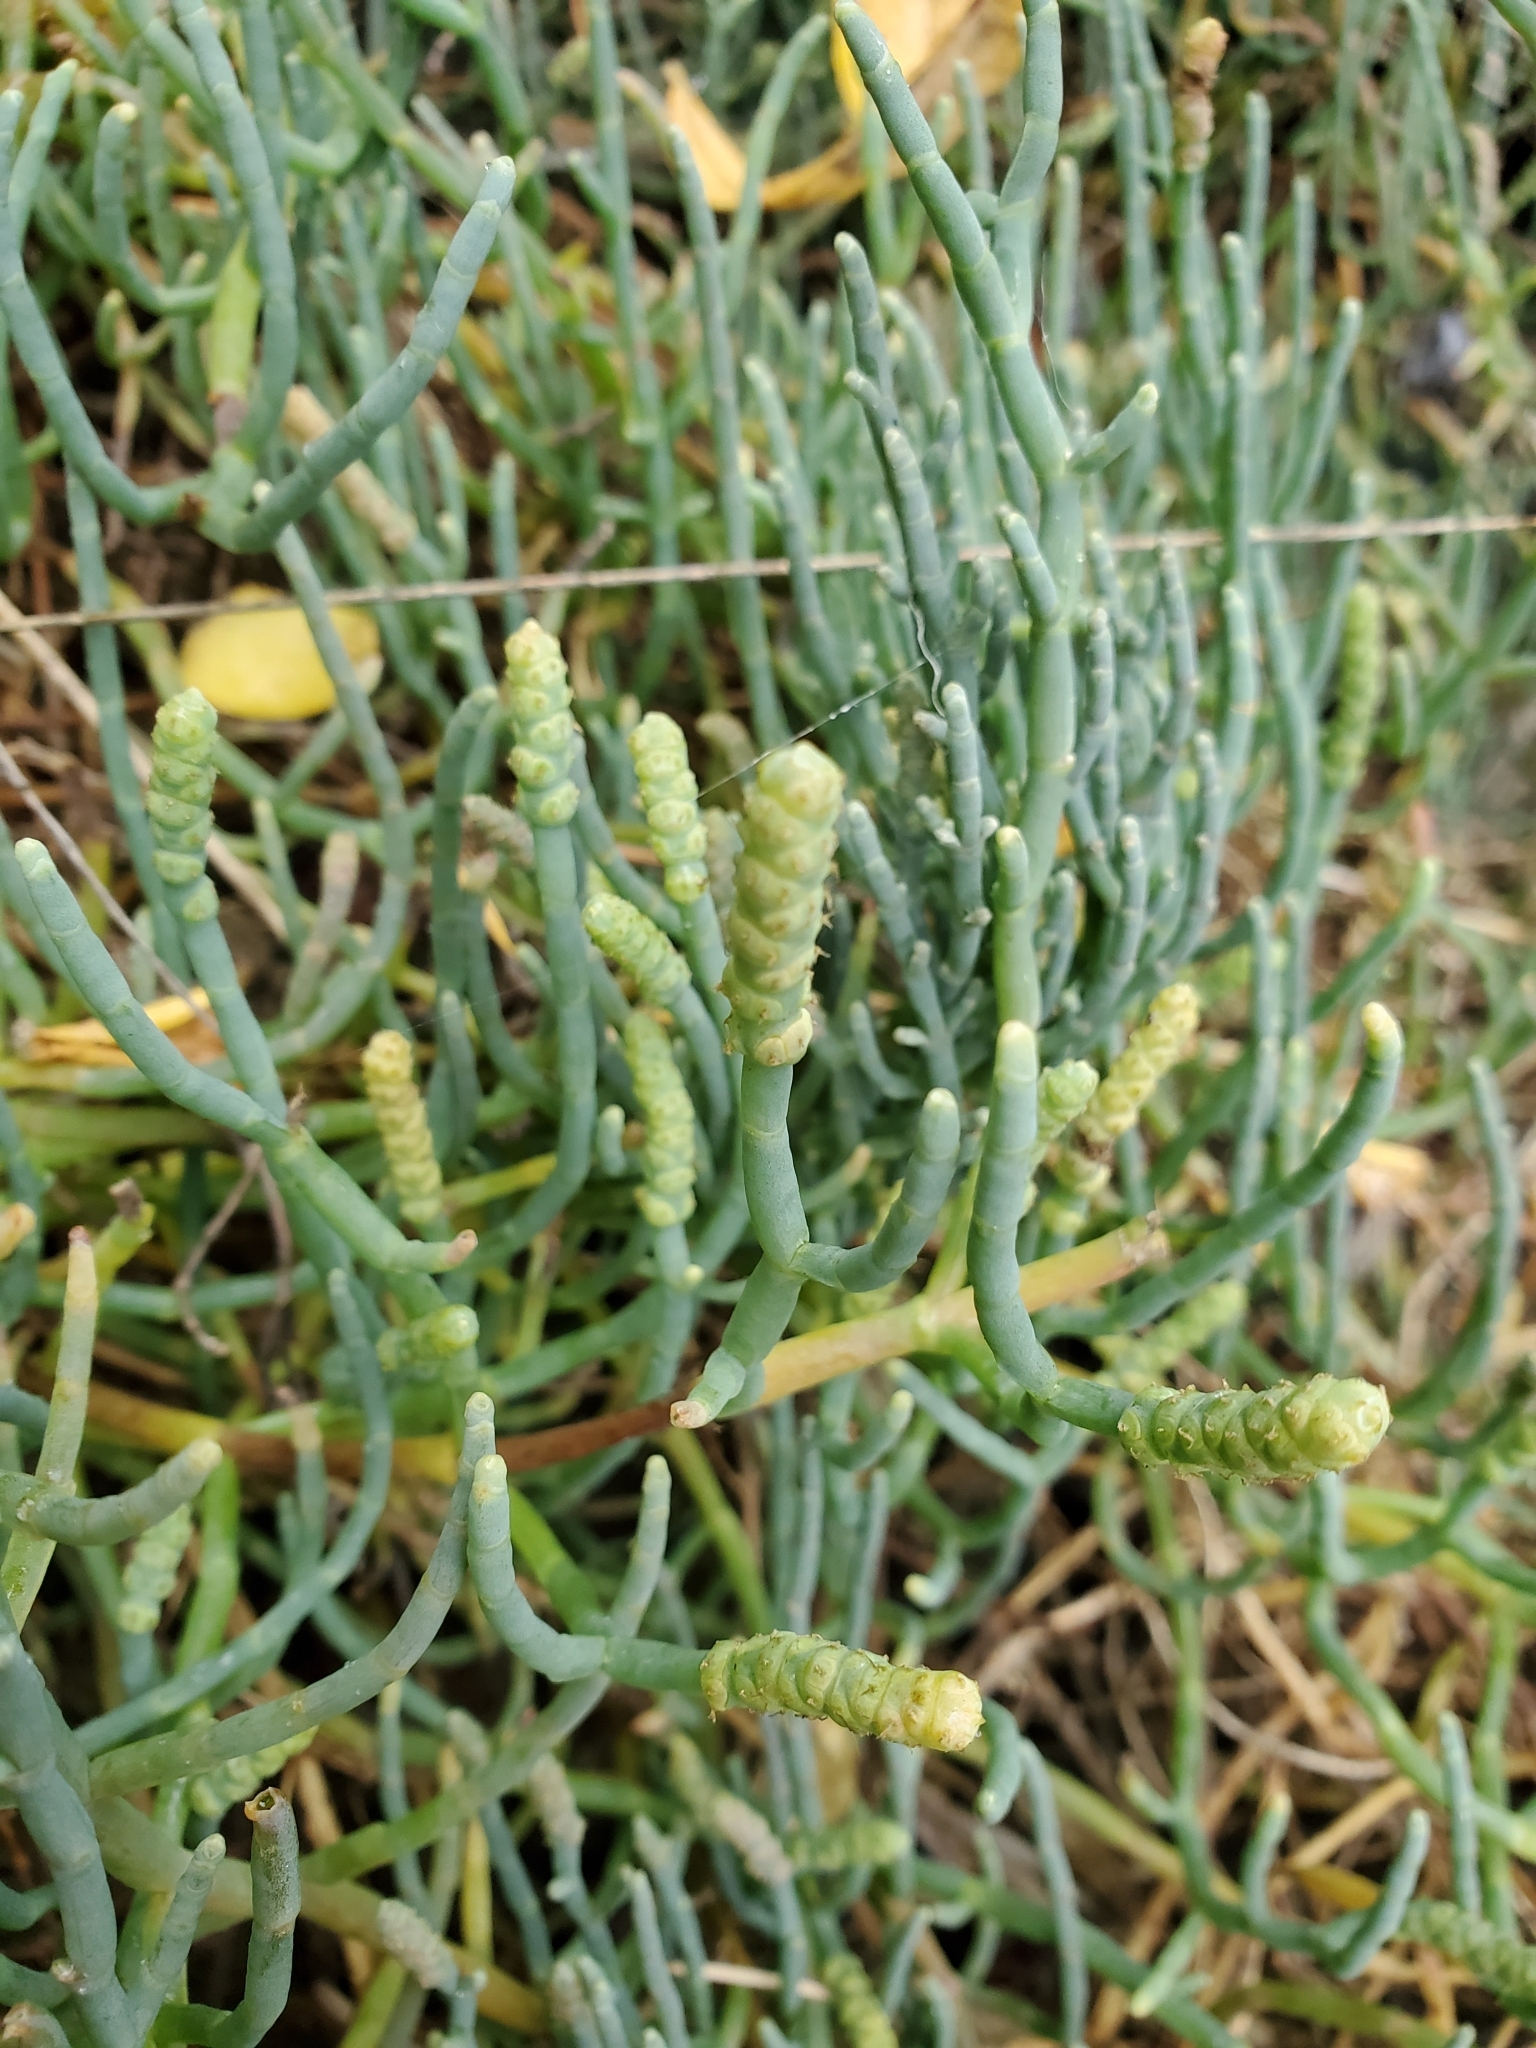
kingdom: Plantae
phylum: Tracheophyta
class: Magnoliopsida
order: Caryophyllales
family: Amaranthaceae
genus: Salicornia
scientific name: Salicornia pacifica
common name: Pacific glasswort
